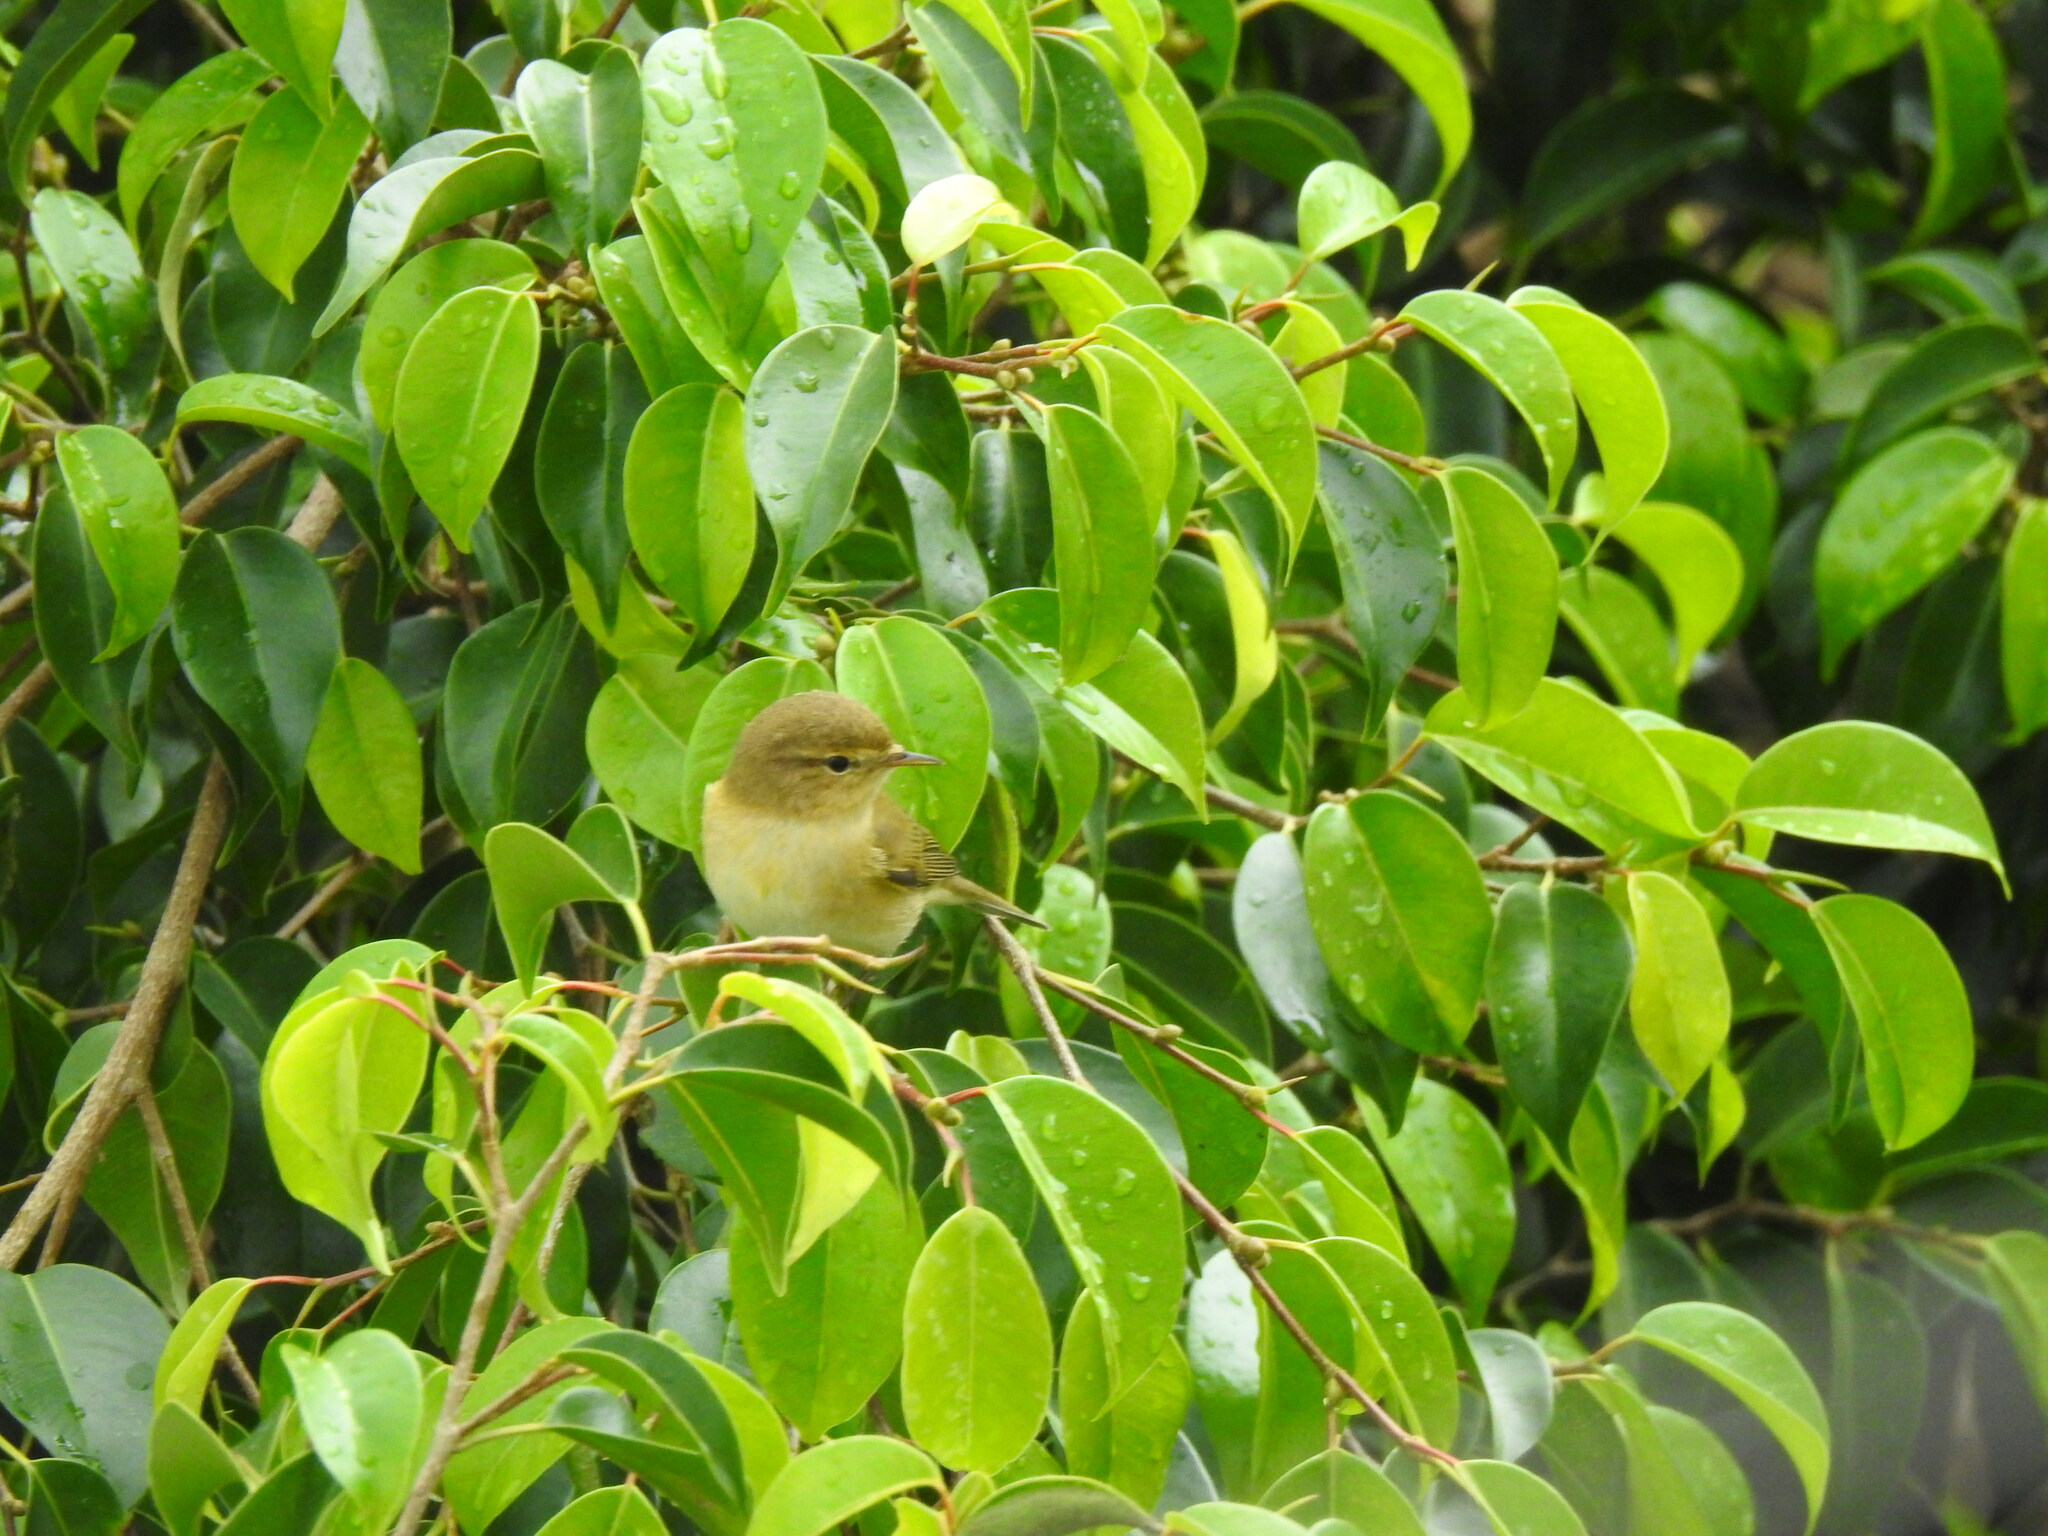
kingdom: Animalia
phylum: Chordata
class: Aves
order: Passeriformes
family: Phylloscopidae
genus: Phylloscopus
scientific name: Phylloscopus collybita
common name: Common chiffchaff
